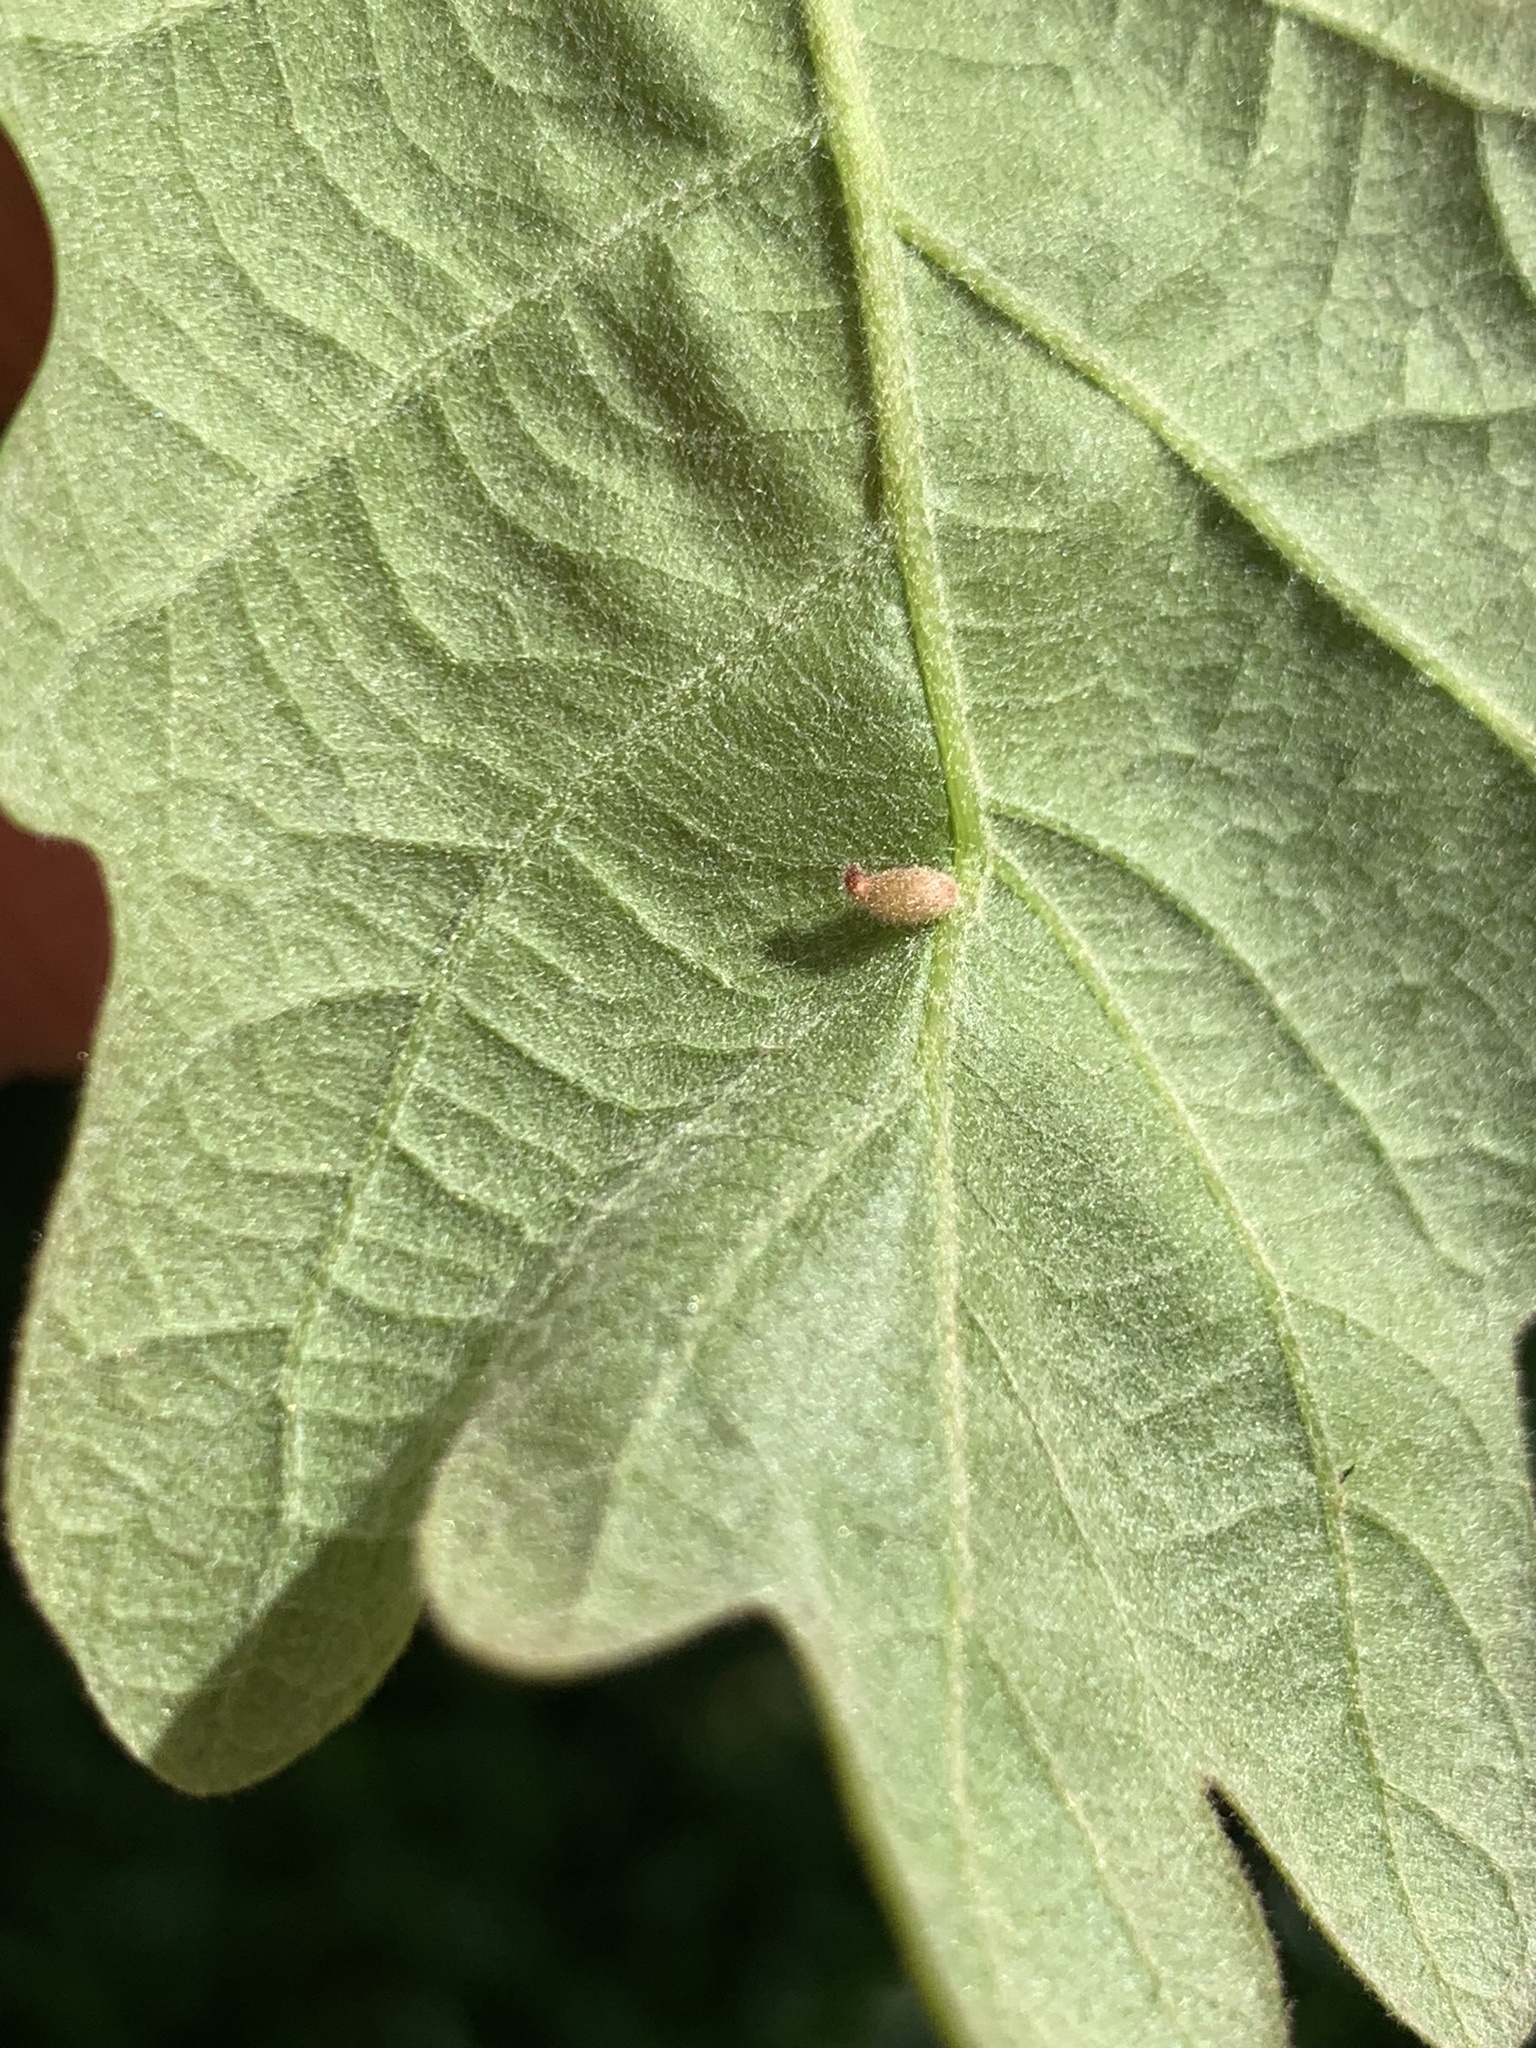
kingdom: Animalia
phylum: Arthropoda
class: Insecta
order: Hymenoptera
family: Cynipidae
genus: Andricus
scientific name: Andricus
